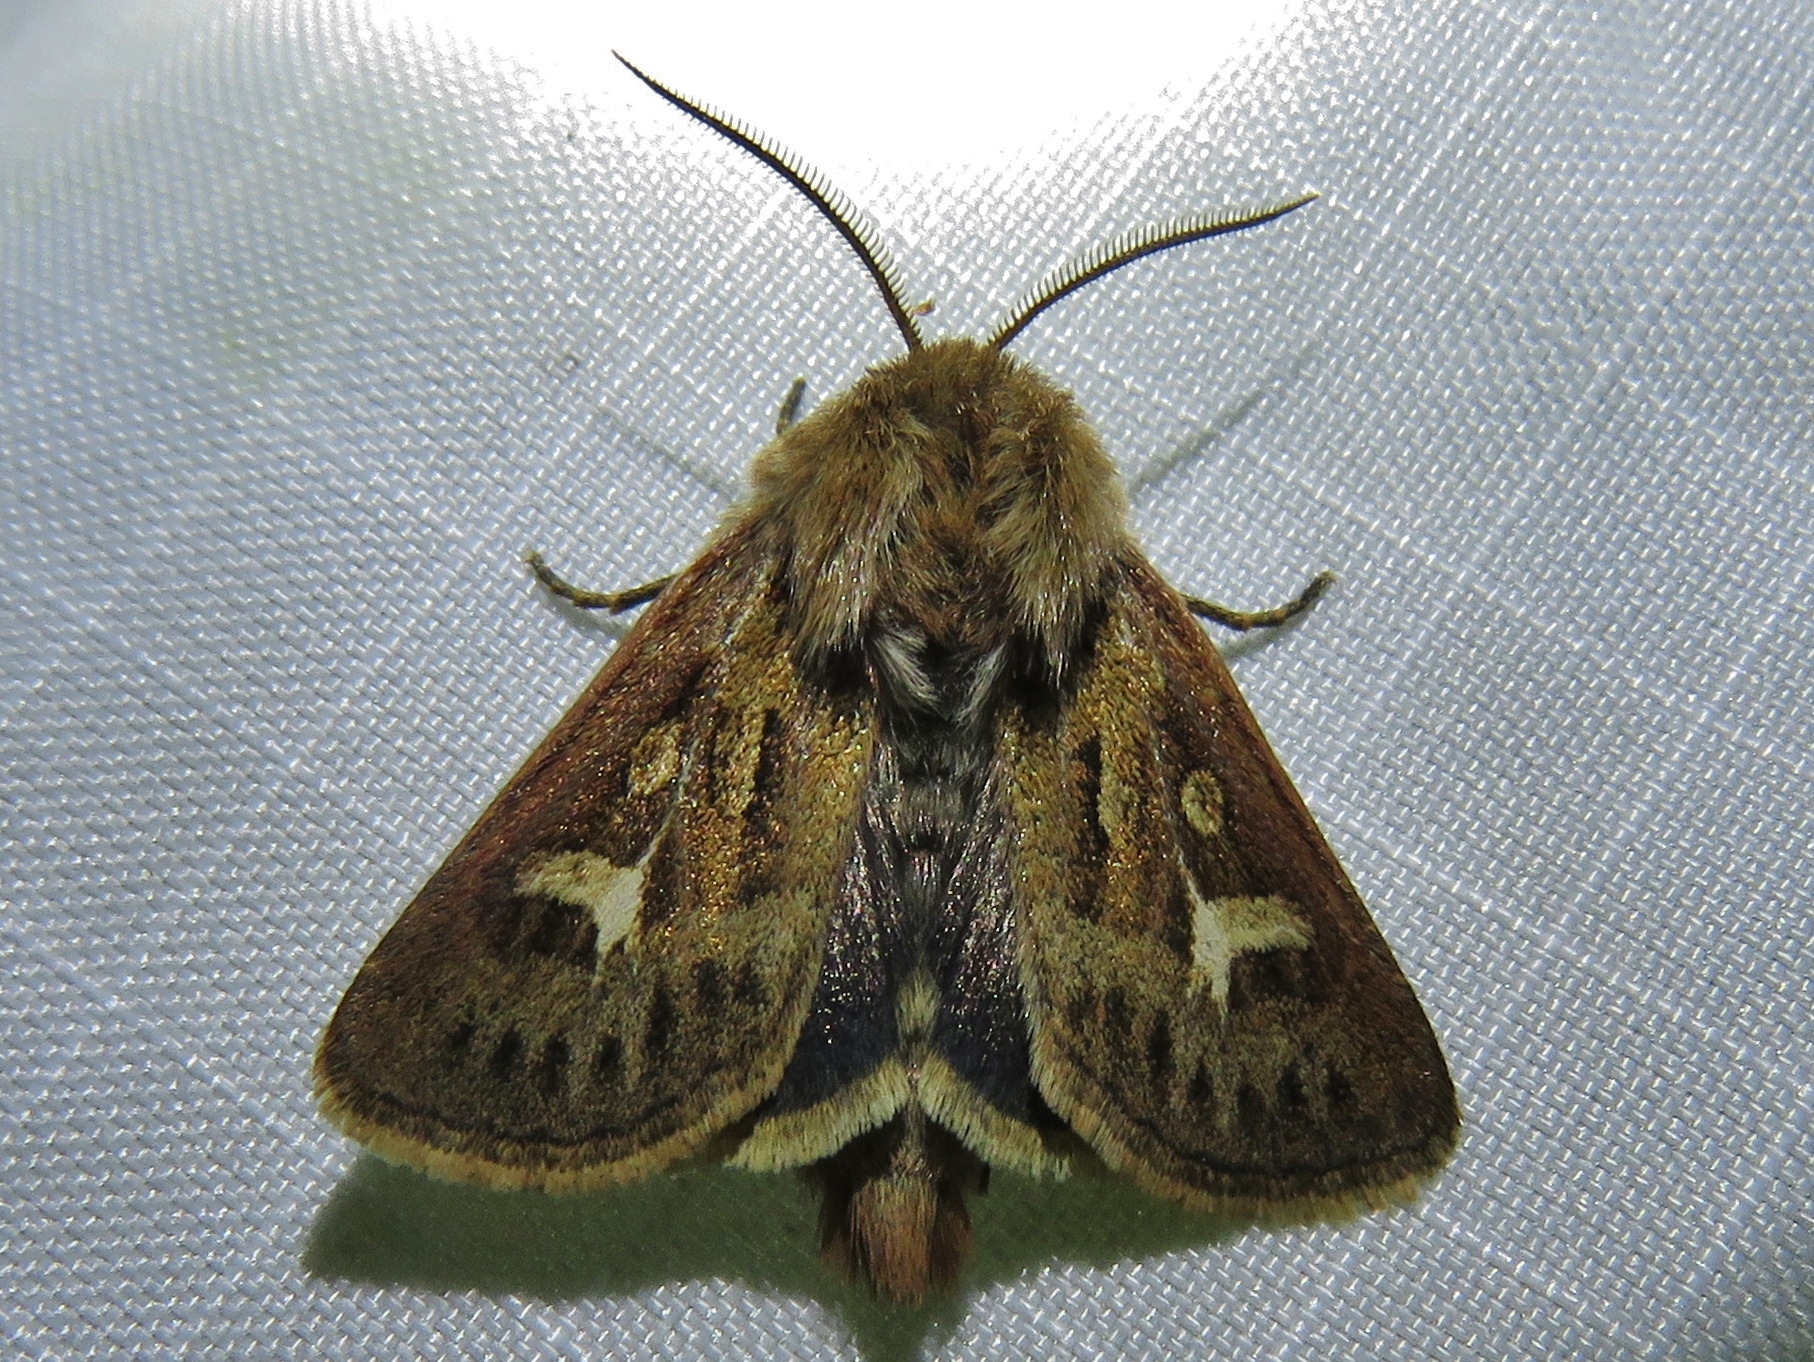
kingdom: Animalia
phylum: Arthropoda
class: Insecta
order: Lepidoptera
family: Noctuidae
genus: Cerapteryx
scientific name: Cerapteryx graminis
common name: Antler moth
